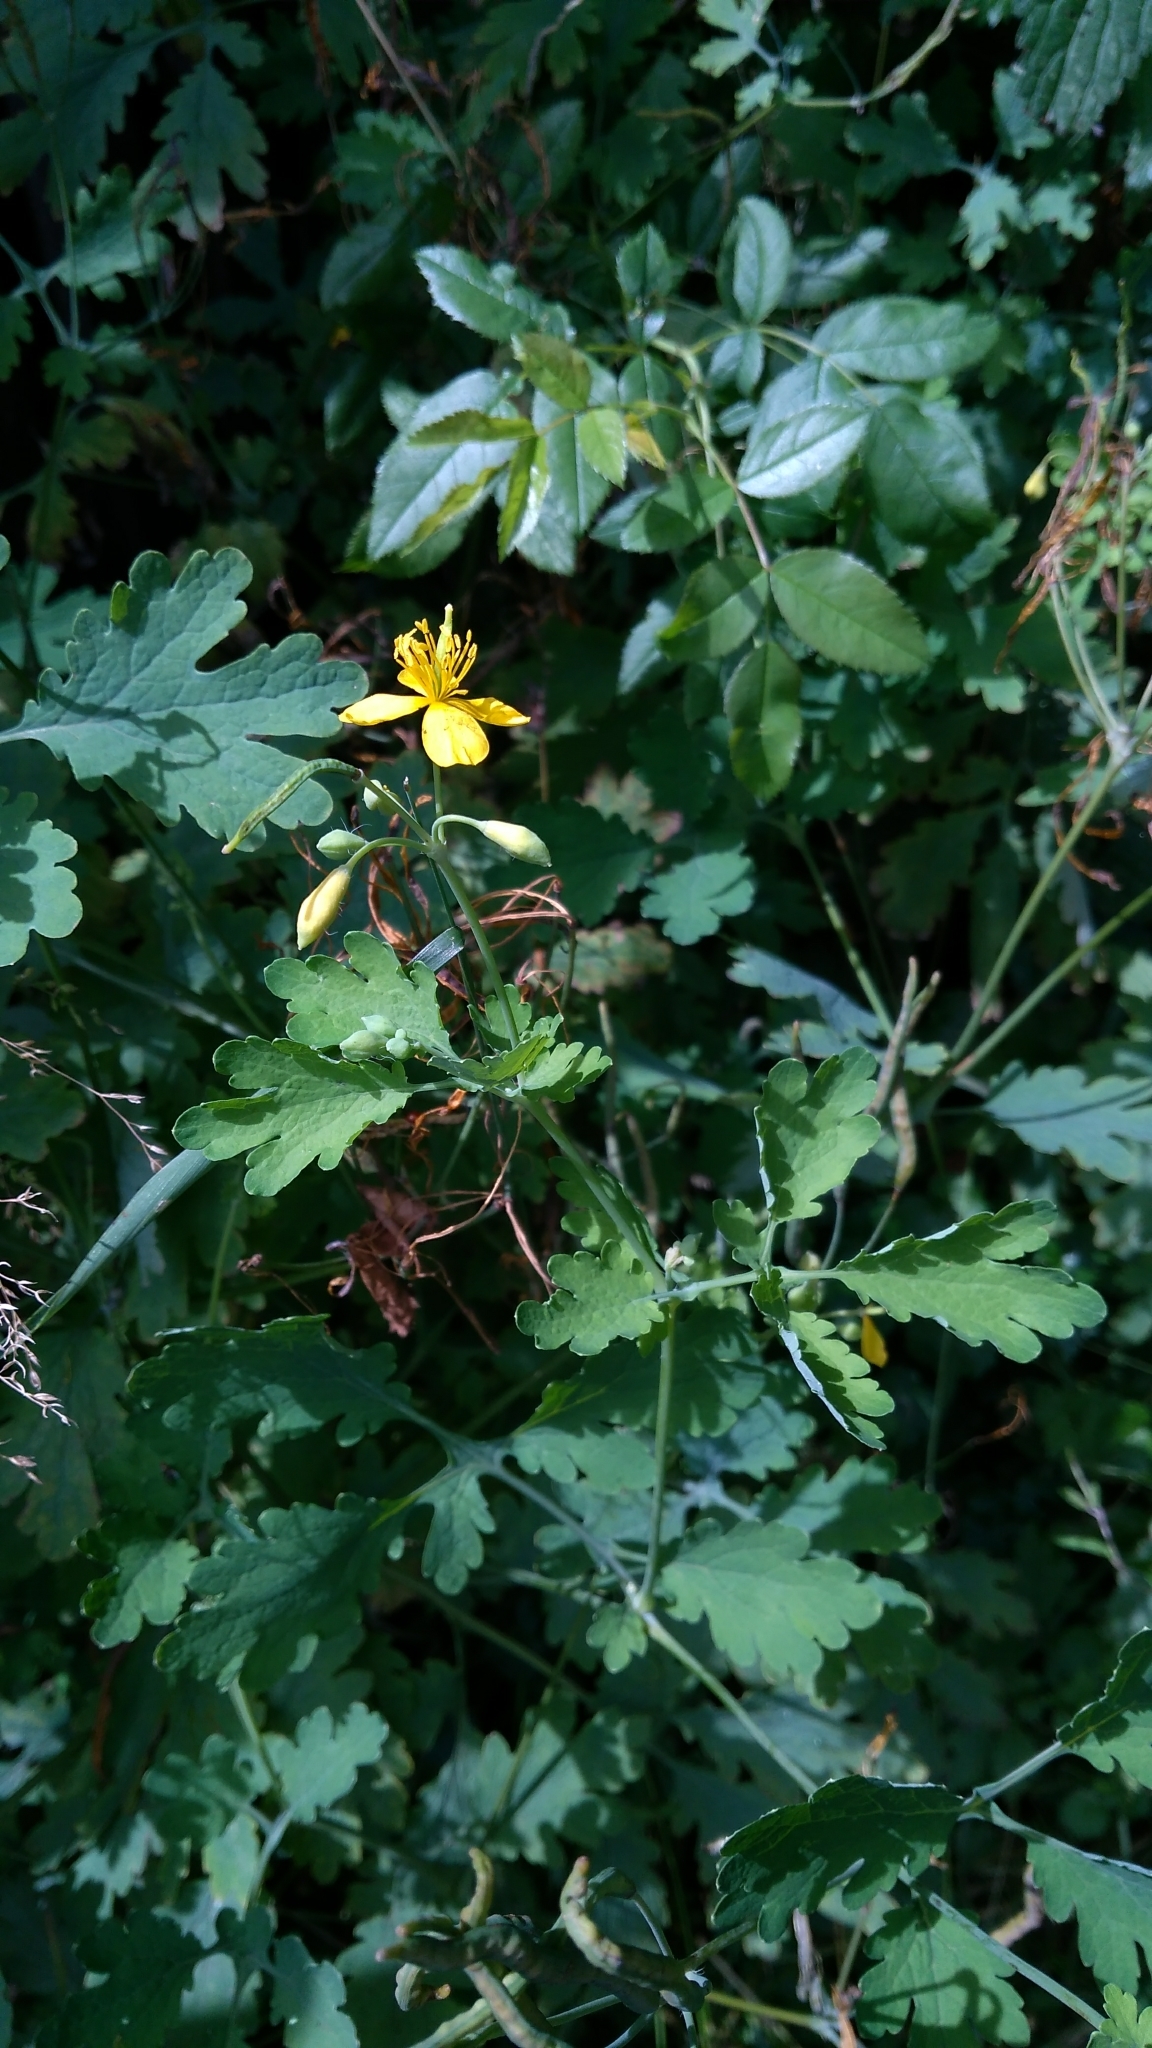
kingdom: Plantae
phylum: Tracheophyta
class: Magnoliopsida
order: Ranunculales
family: Papaveraceae
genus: Chelidonium
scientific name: Chelidonium majus
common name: Greater celandine
